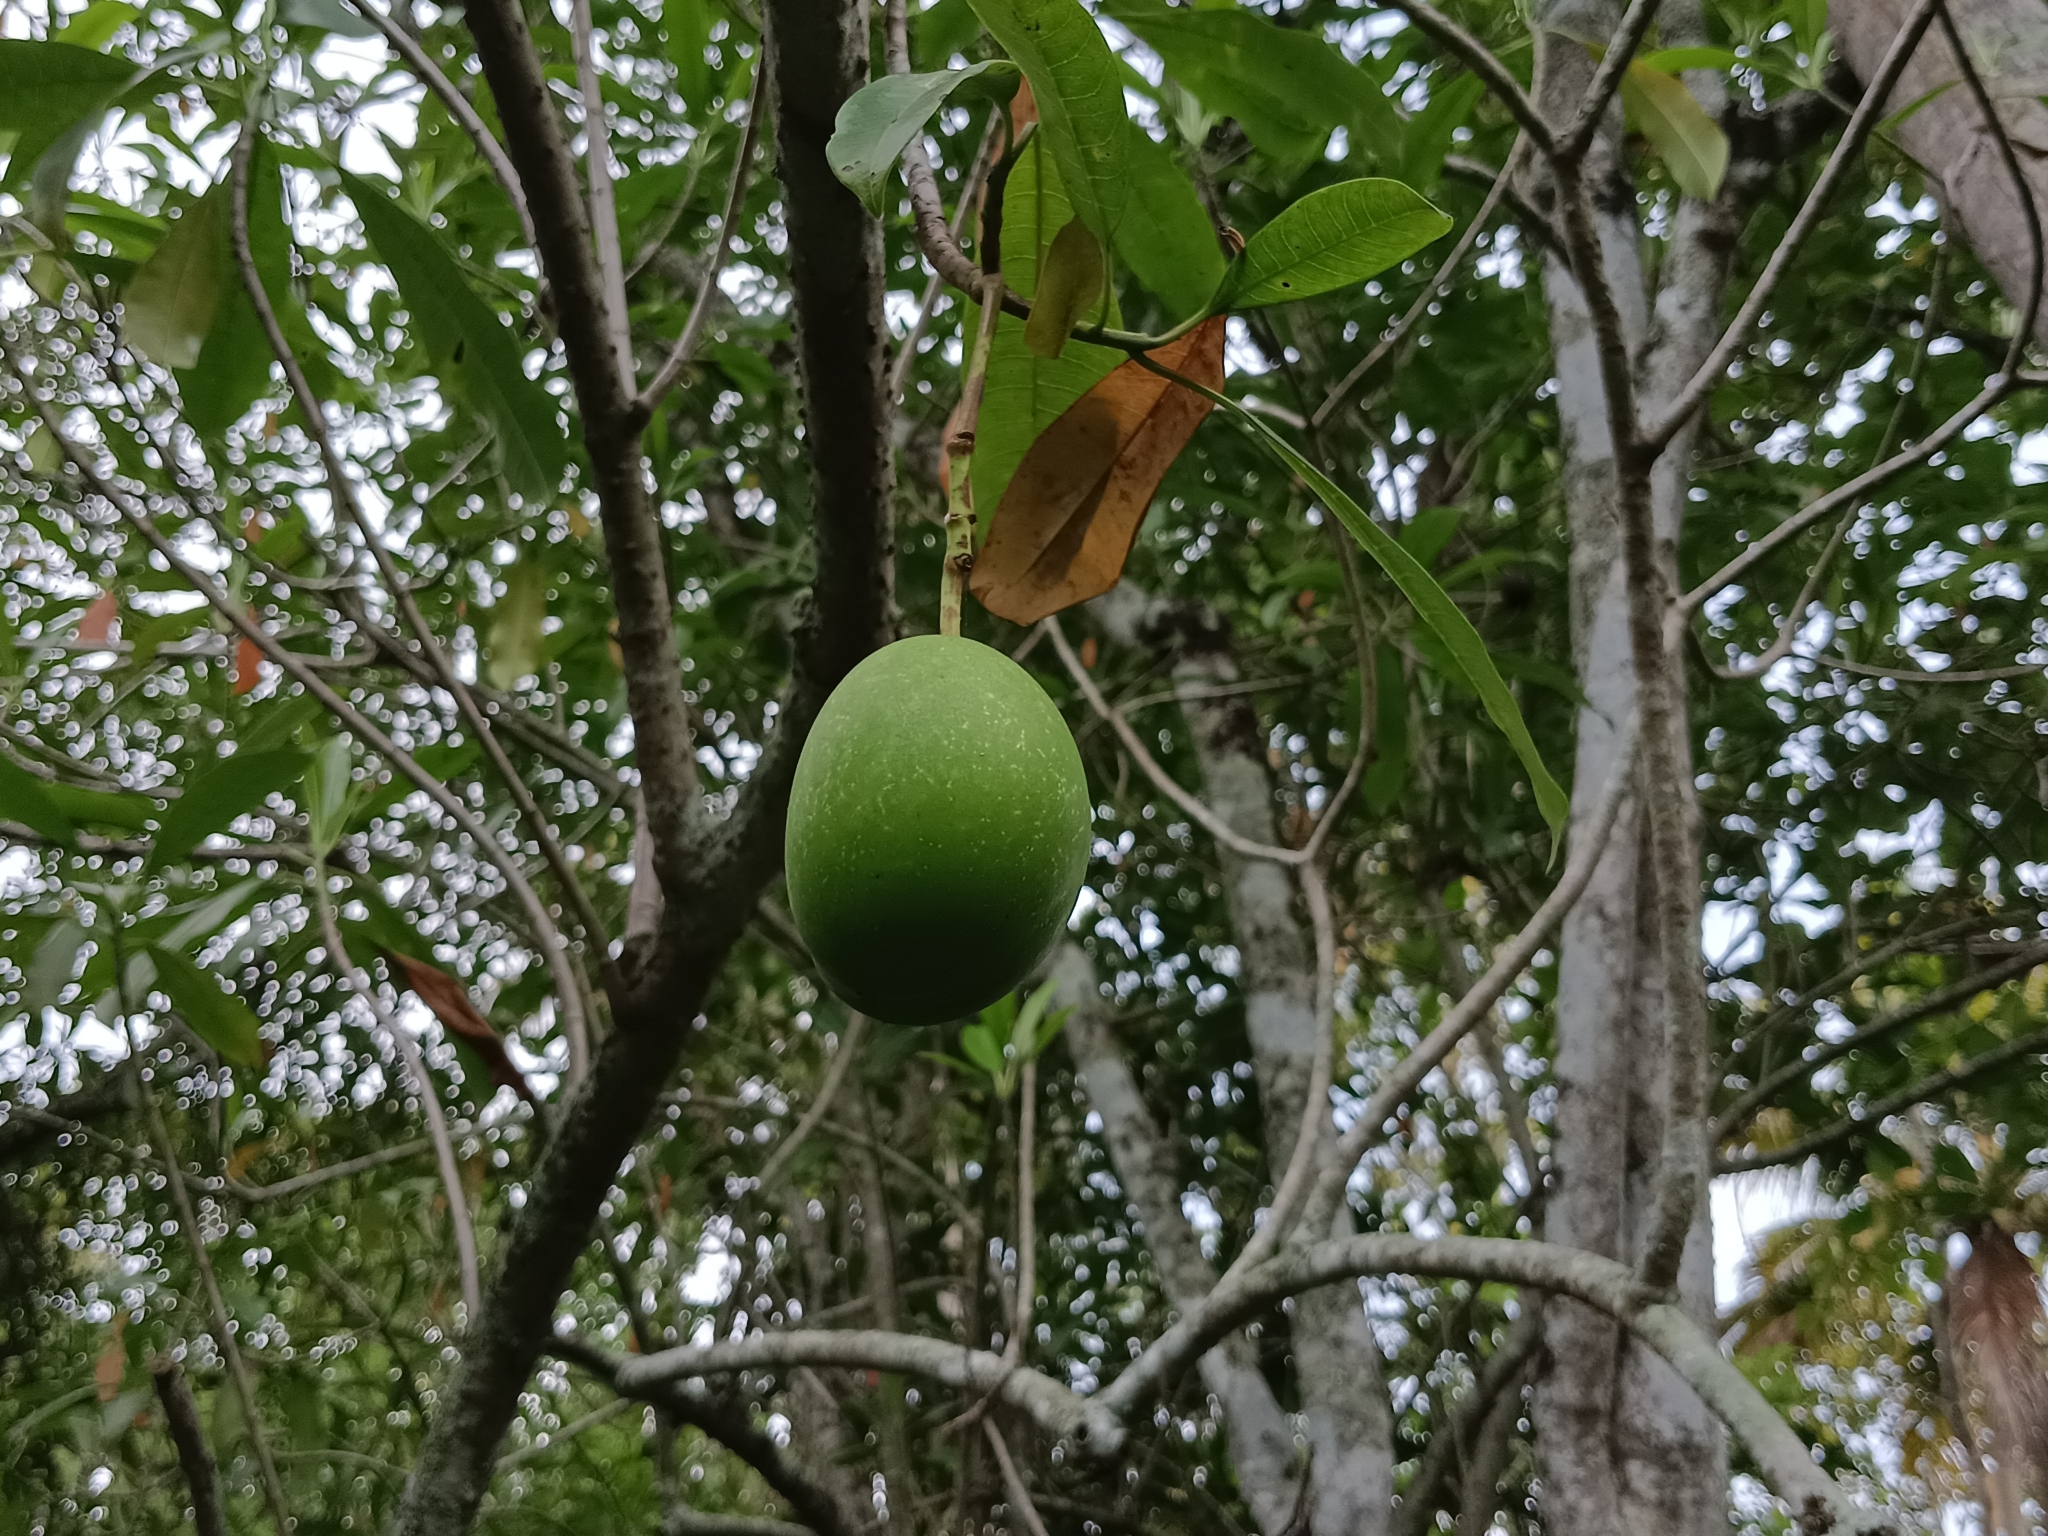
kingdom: Plantae
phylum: Tracheophyta
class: Magnoliopsida
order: Gentianales
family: Apocynaceae
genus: Cerbera
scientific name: Cerbera odollam
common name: Pong-pong
